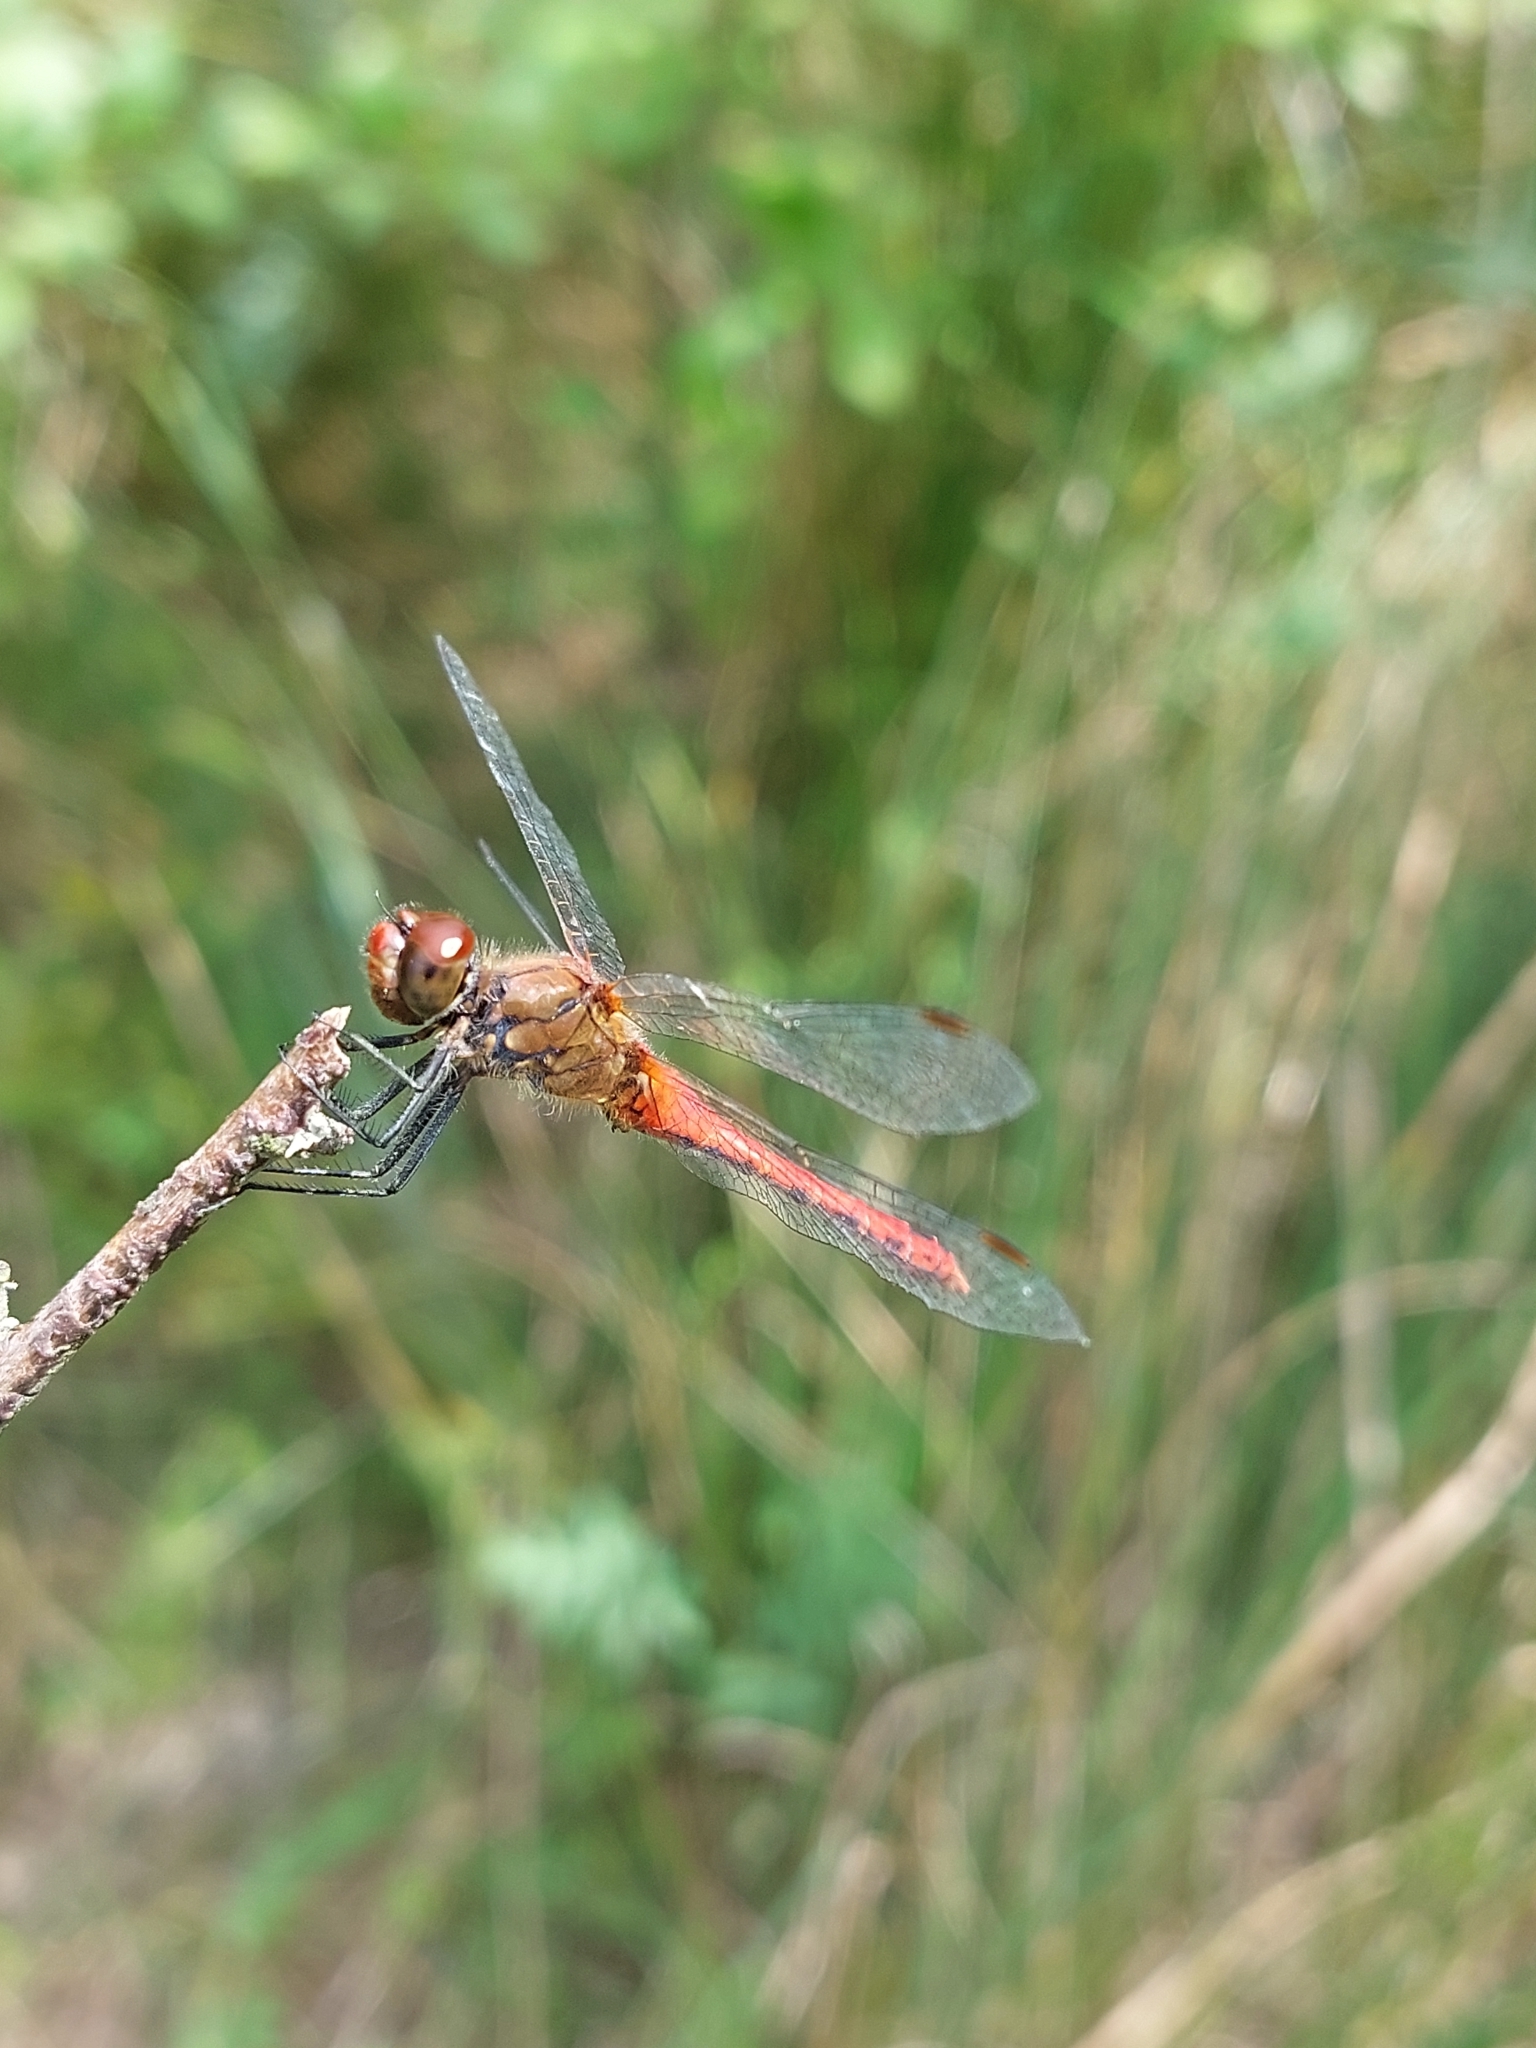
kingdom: Animalia
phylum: Arthropoda
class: Insecta
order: Odonata
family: Libellulidae
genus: Sympetrum
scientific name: Sympetrum sanguineum
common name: Ruddy darter
